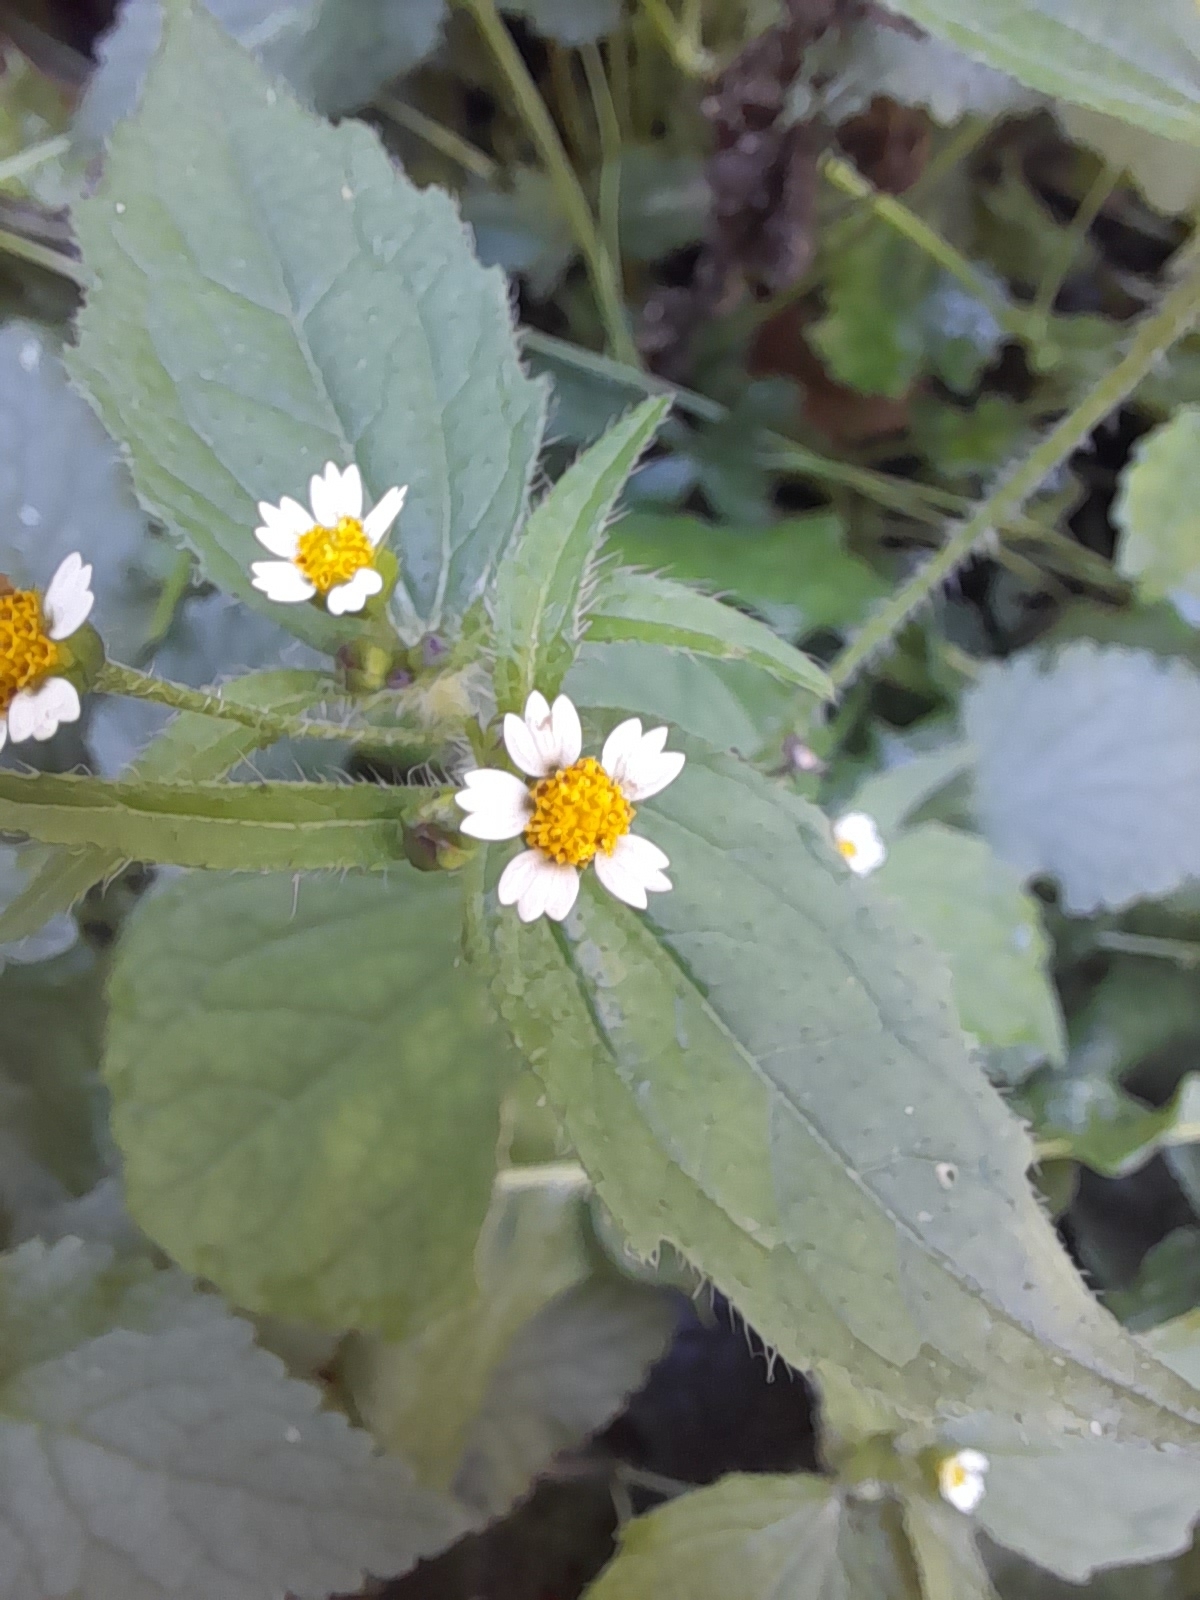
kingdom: Plantae
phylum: Tracheophyta
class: Magnoliopsida
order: Asterales
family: Asteraceae
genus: Galinsoga
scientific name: Galinsoga quadriradiata
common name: Shaggy soldier
